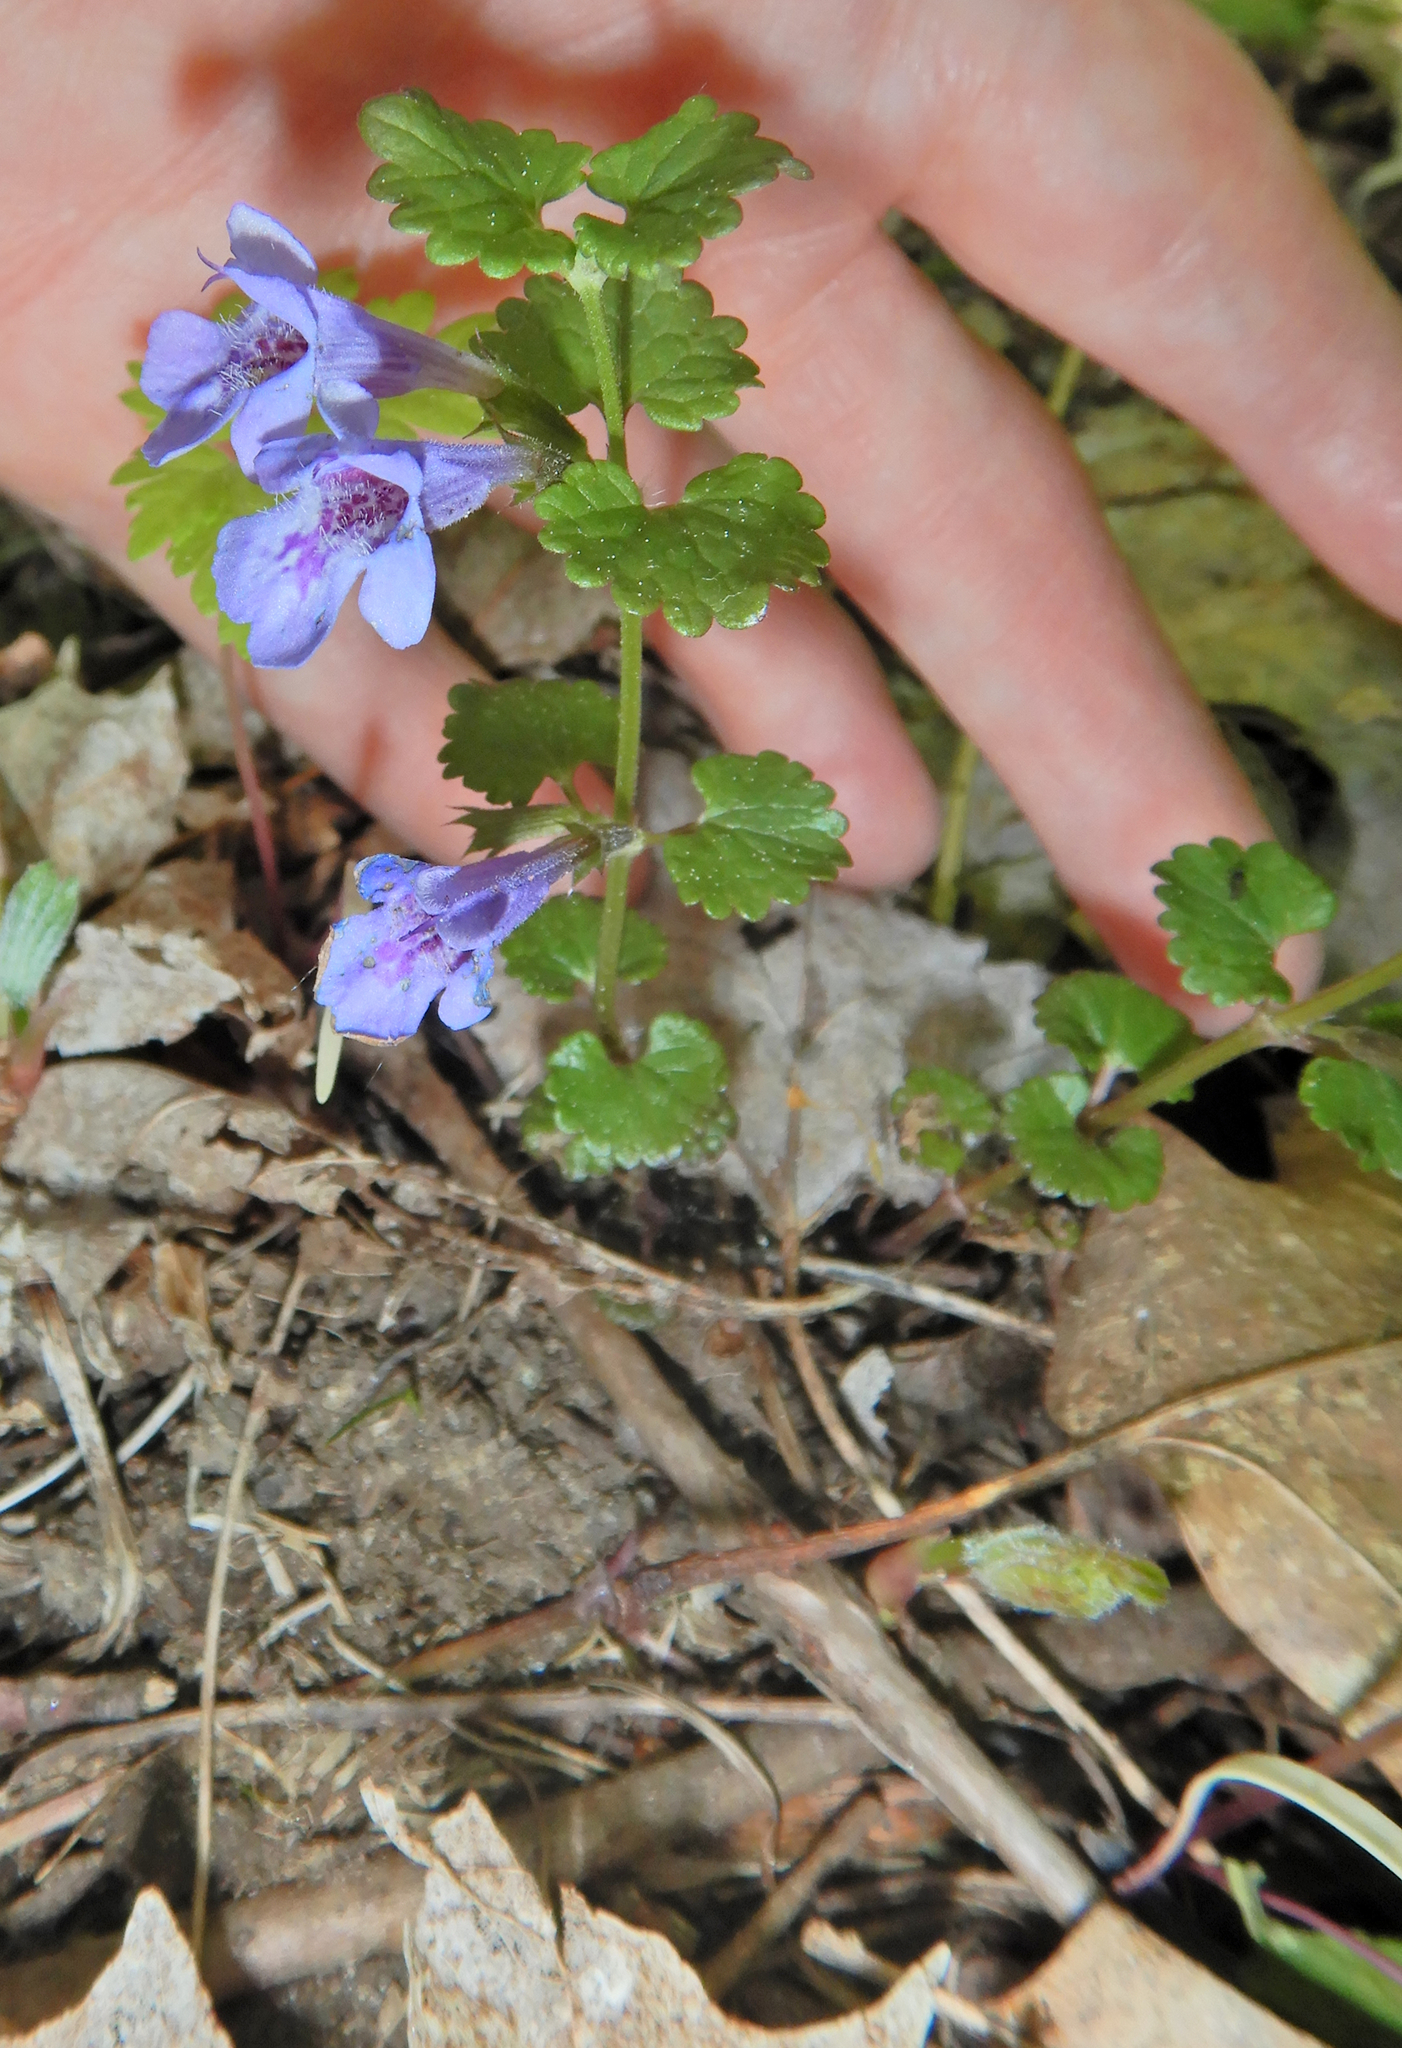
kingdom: Plantae
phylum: Tracheophyta
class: Magnoliopsida
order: Lamiales
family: Lamiaceae
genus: Glechoma
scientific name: Glechoma hederacea
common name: Ground ivy
